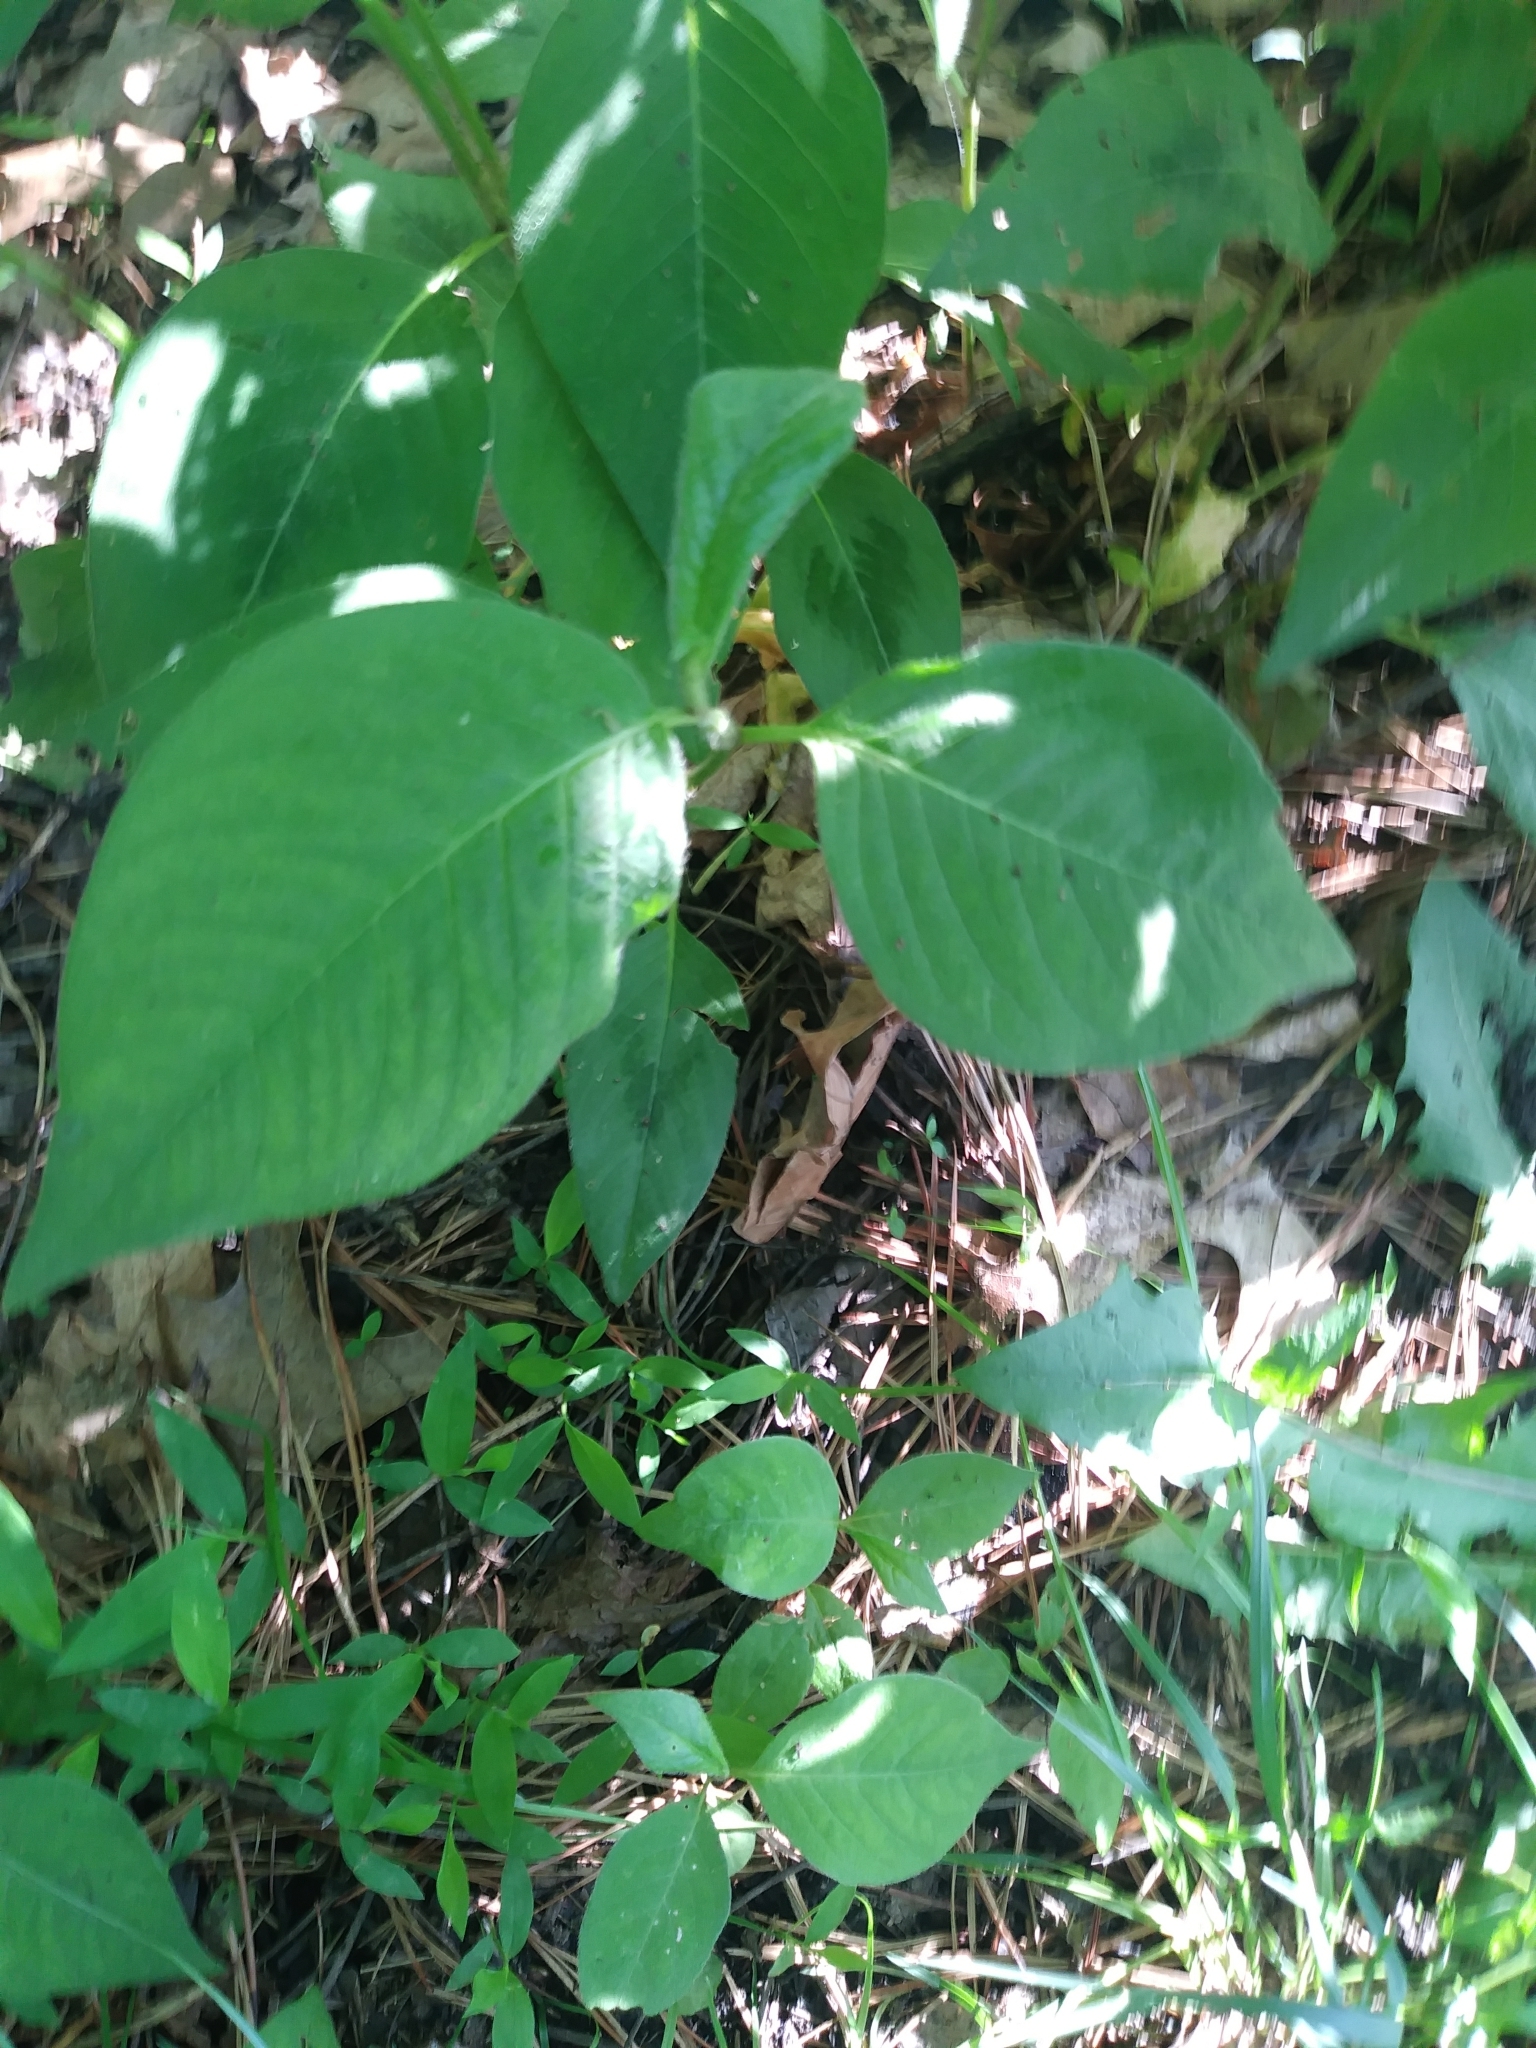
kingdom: Plantae
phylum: Tracheophyta
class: Magnoliopsida
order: Caryophyllales
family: Polygonaceae
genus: Persicaria
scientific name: Persicaria virginiana
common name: Jumpseed
